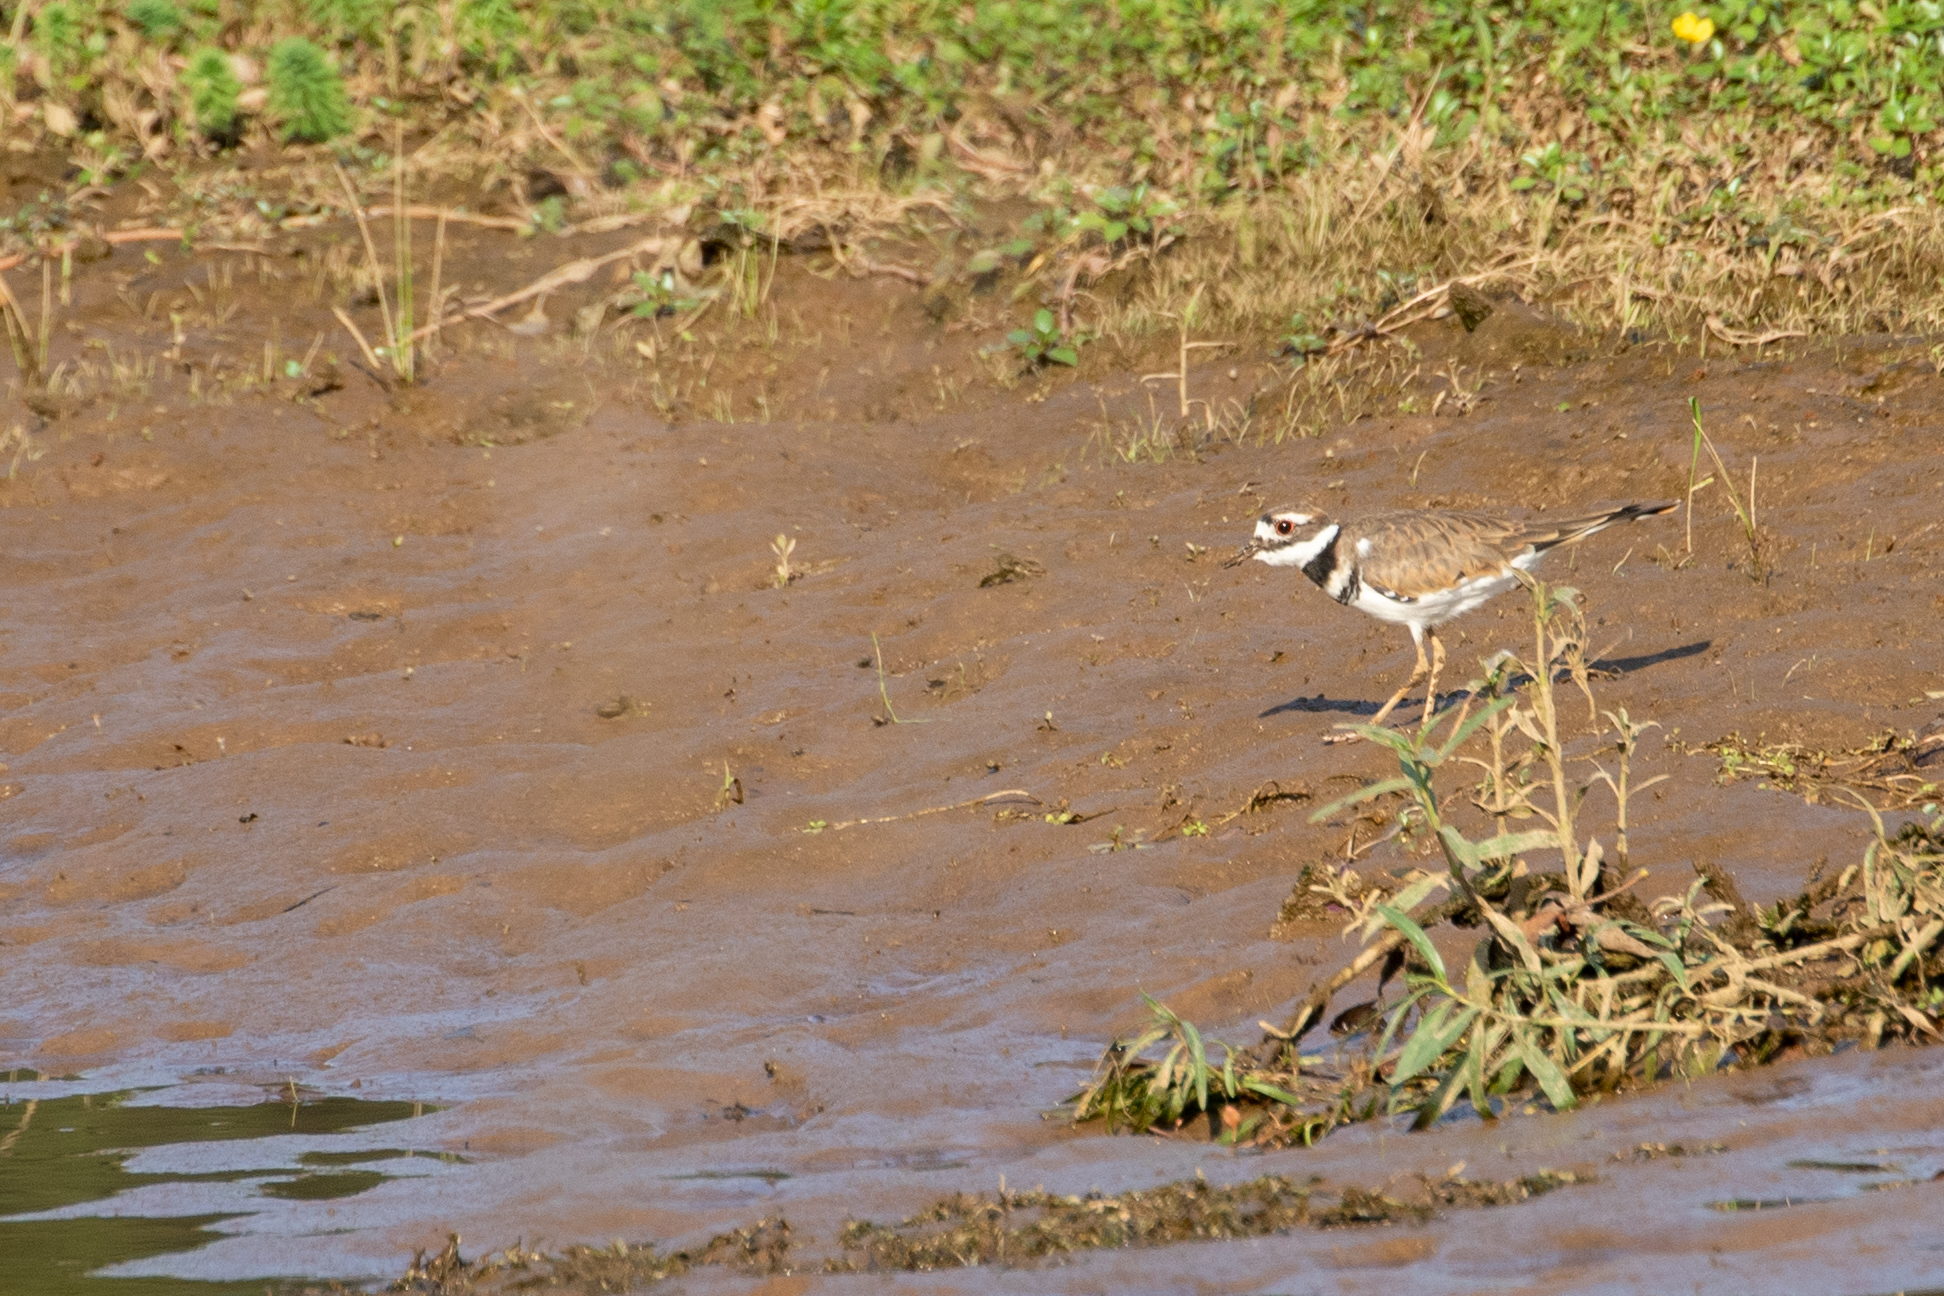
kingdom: Animalia
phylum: Chordata
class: Aves
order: Charadriiformes
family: Charadriidae
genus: Charadrius
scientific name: Charadrius vociferus
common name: Killdeer
